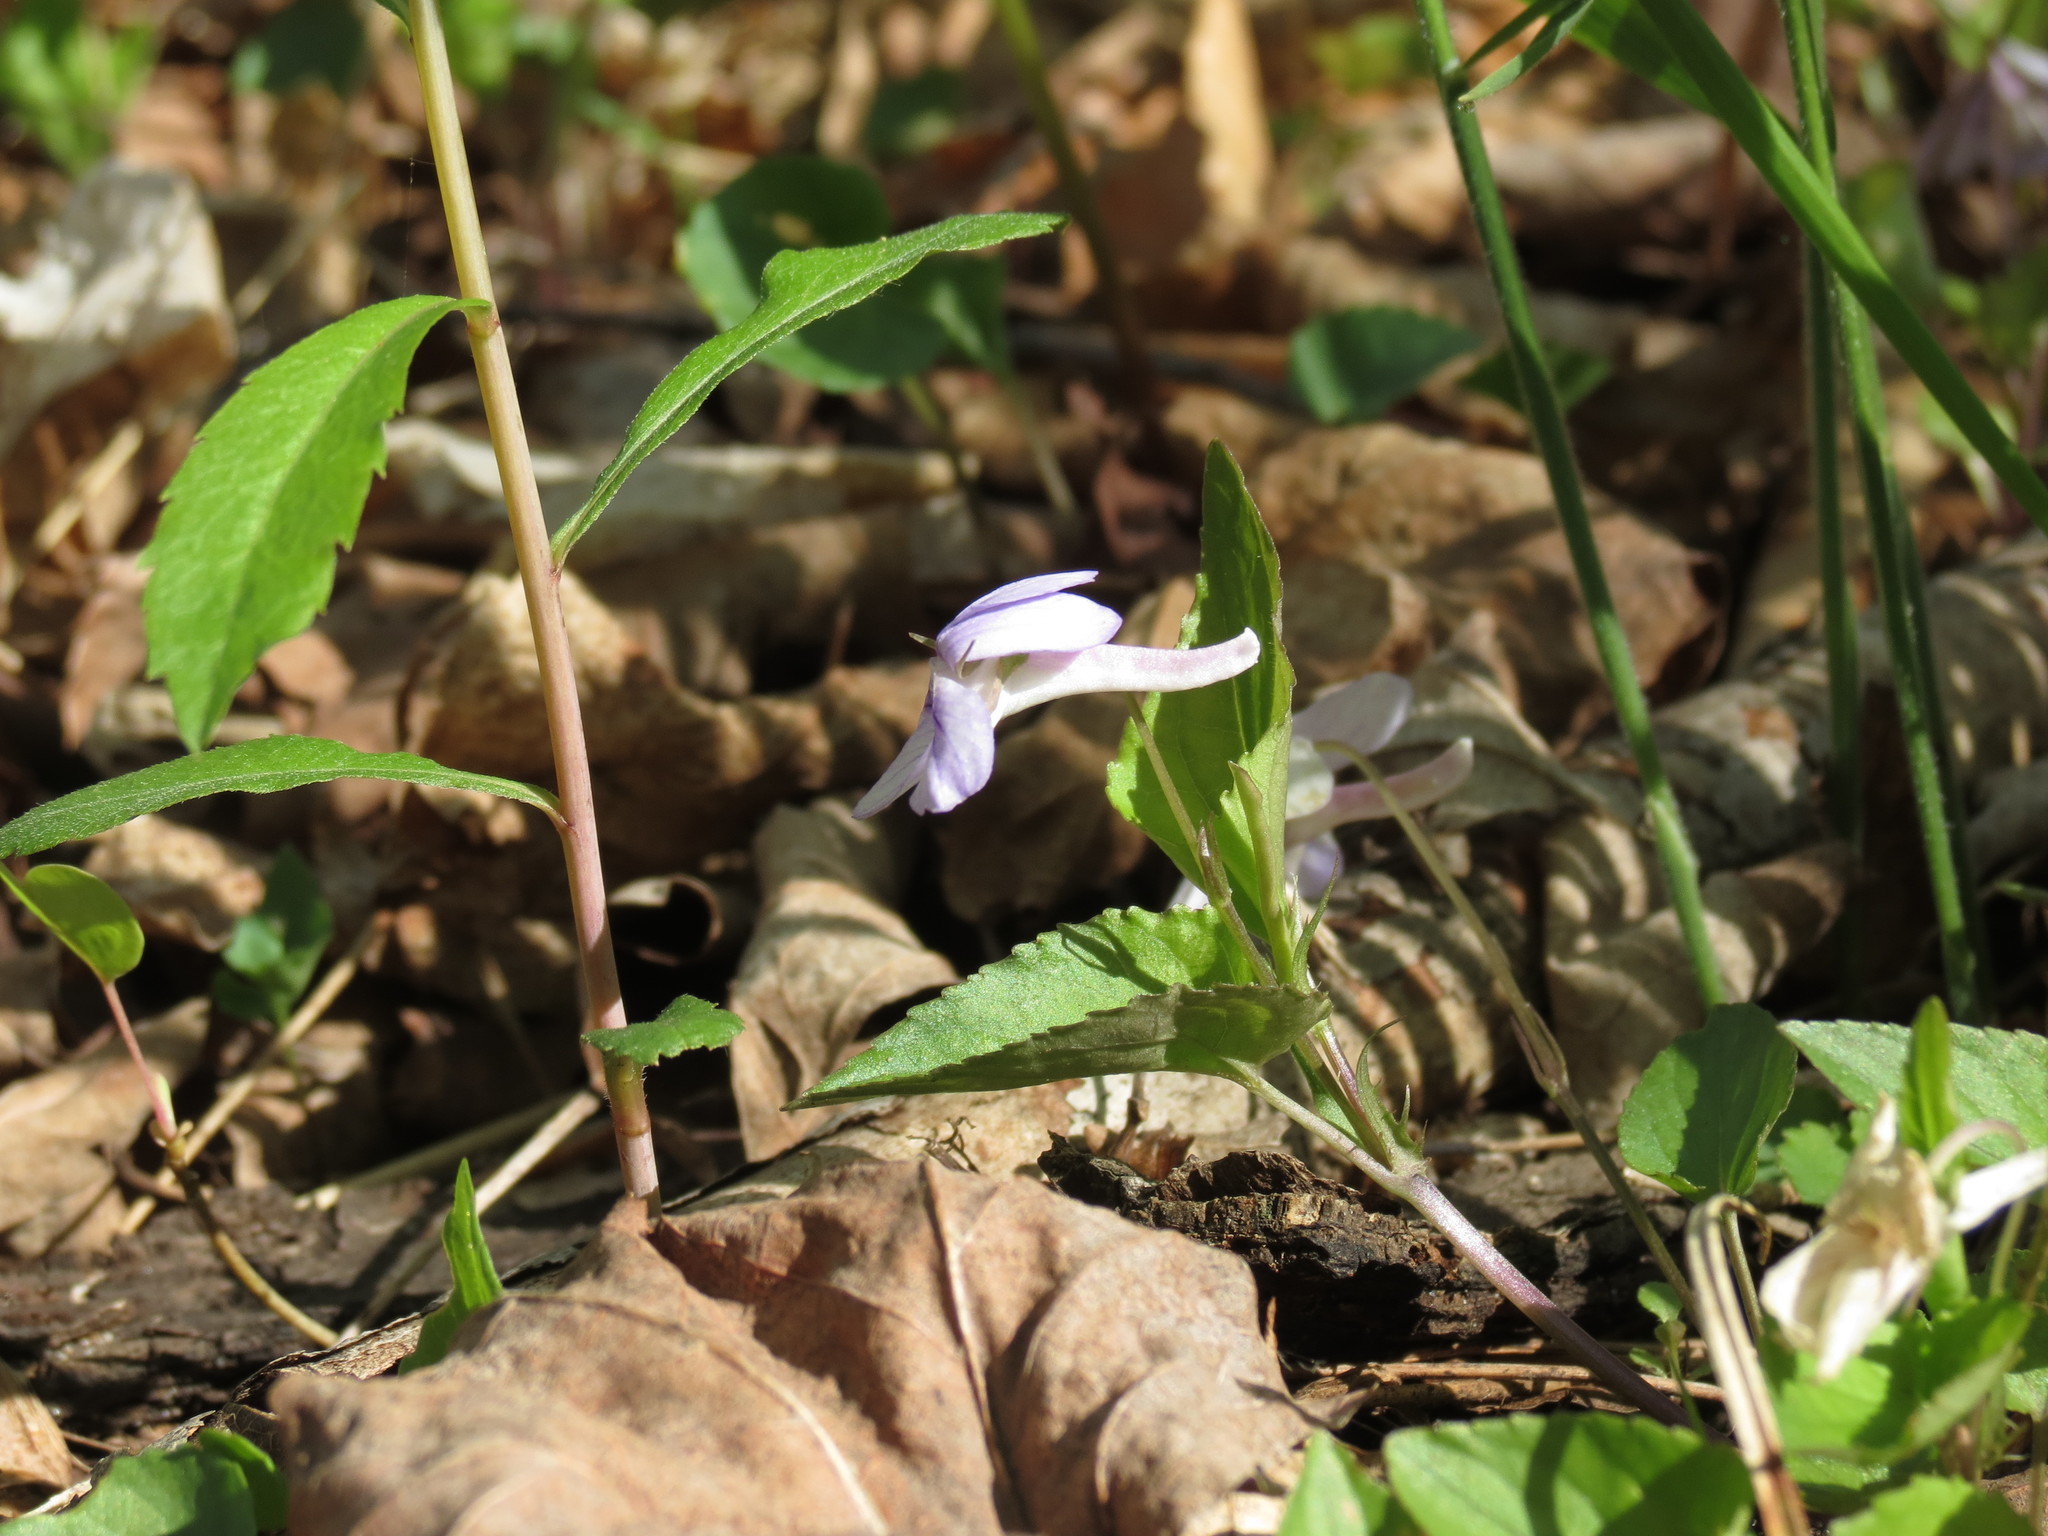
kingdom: Plantae
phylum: Tracheophyta
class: Magnoliopsida
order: Malpighiales
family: Violaceae
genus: Viola
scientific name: Viola rostrata
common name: Long-spur violet
